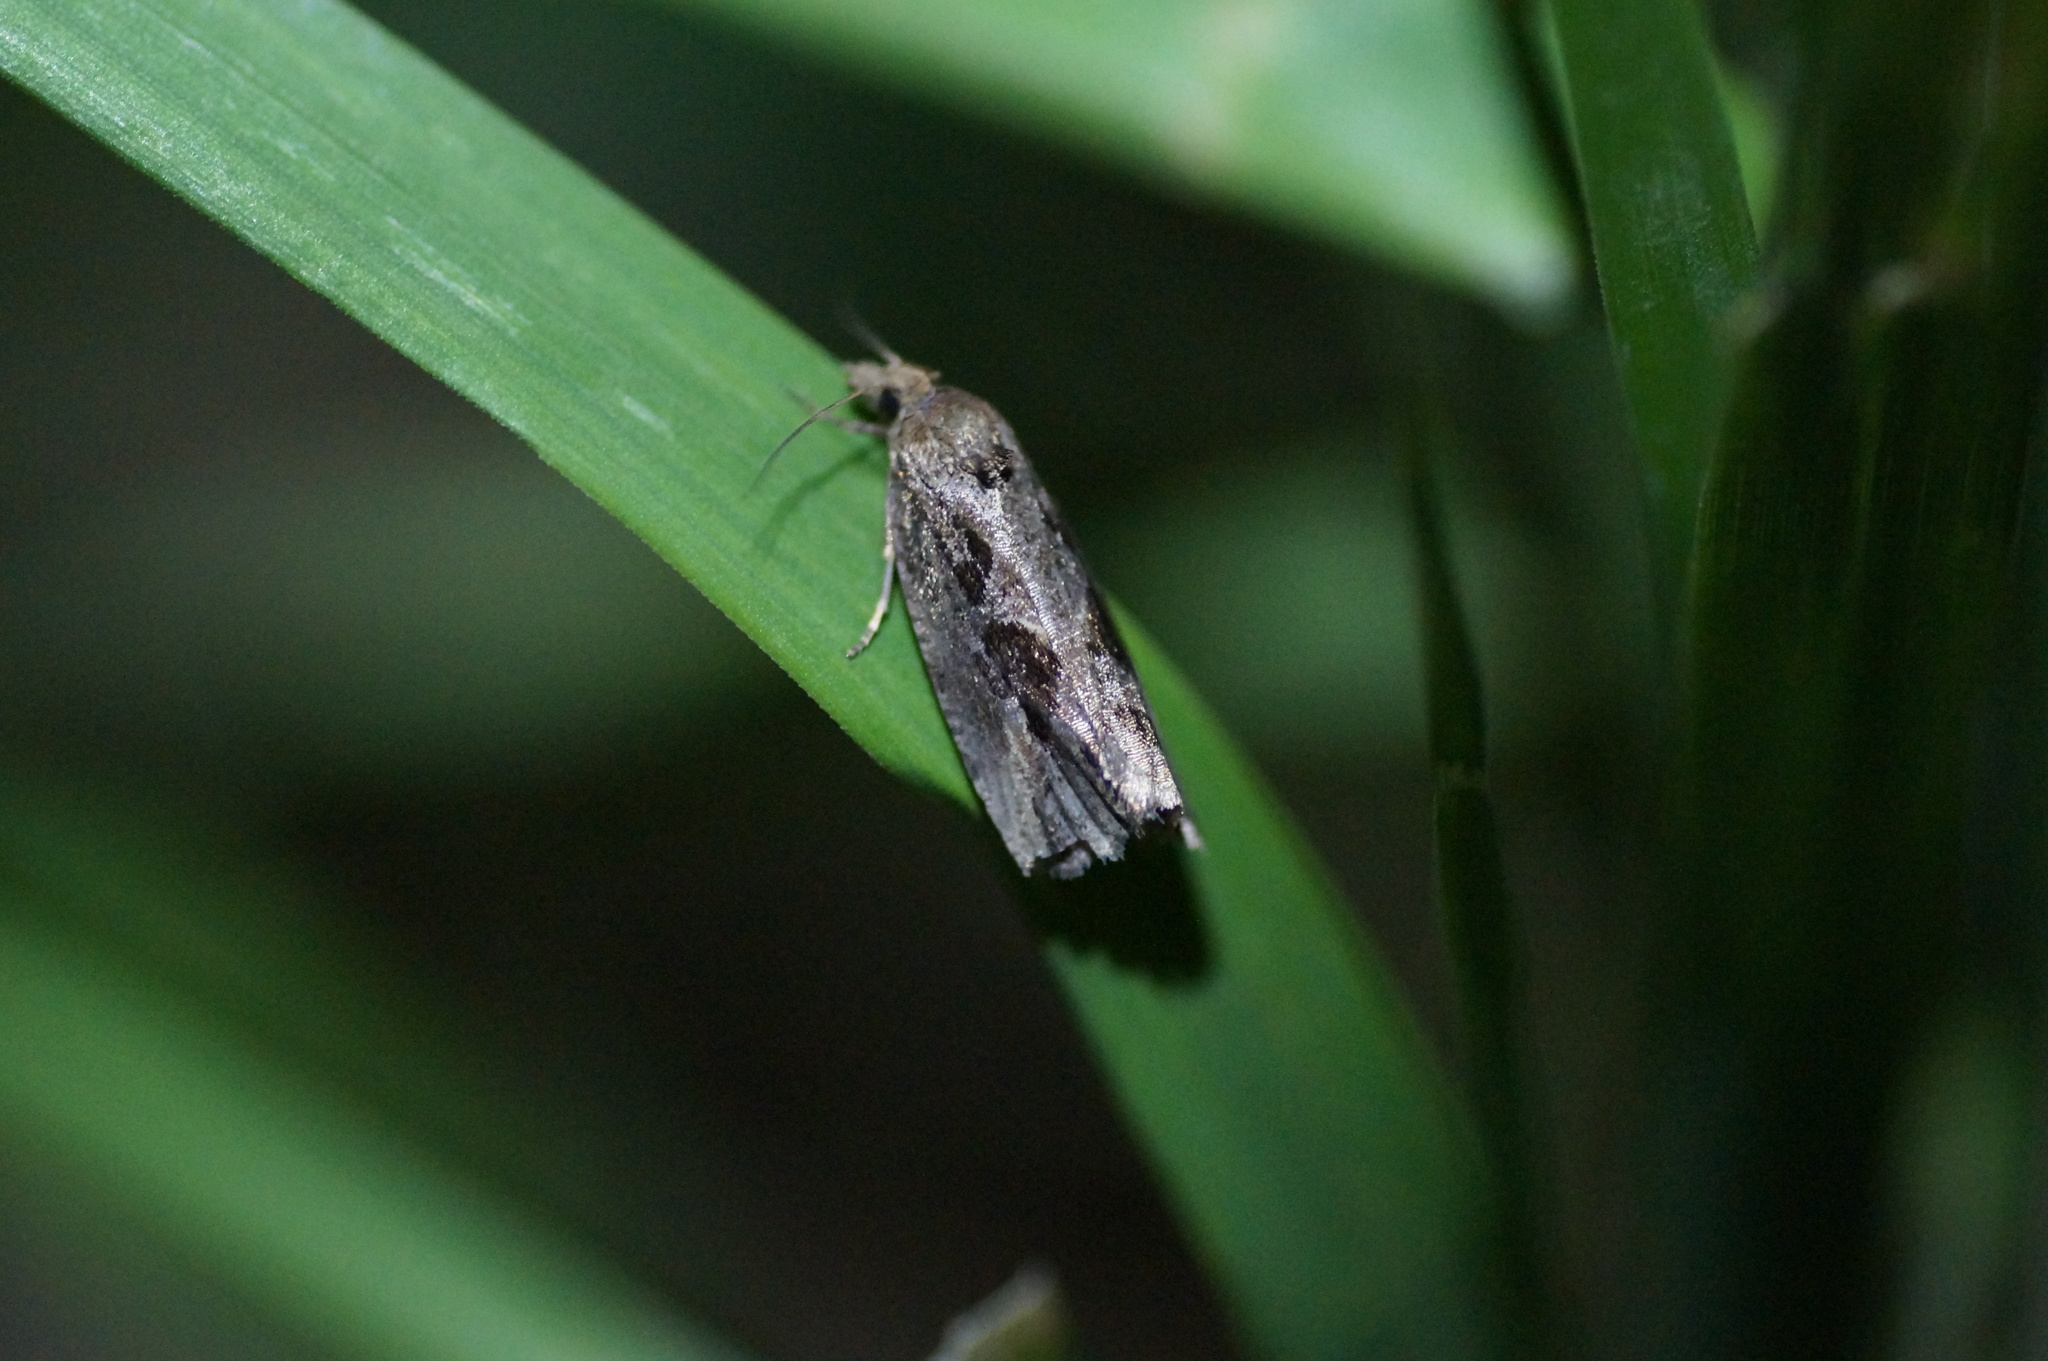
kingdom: Animalia
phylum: Arthropoda
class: Insecta
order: Lepidoptera
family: Tortricidae
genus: Endothenia
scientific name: Endothenia quadrimaculana
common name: Tortricid moth
